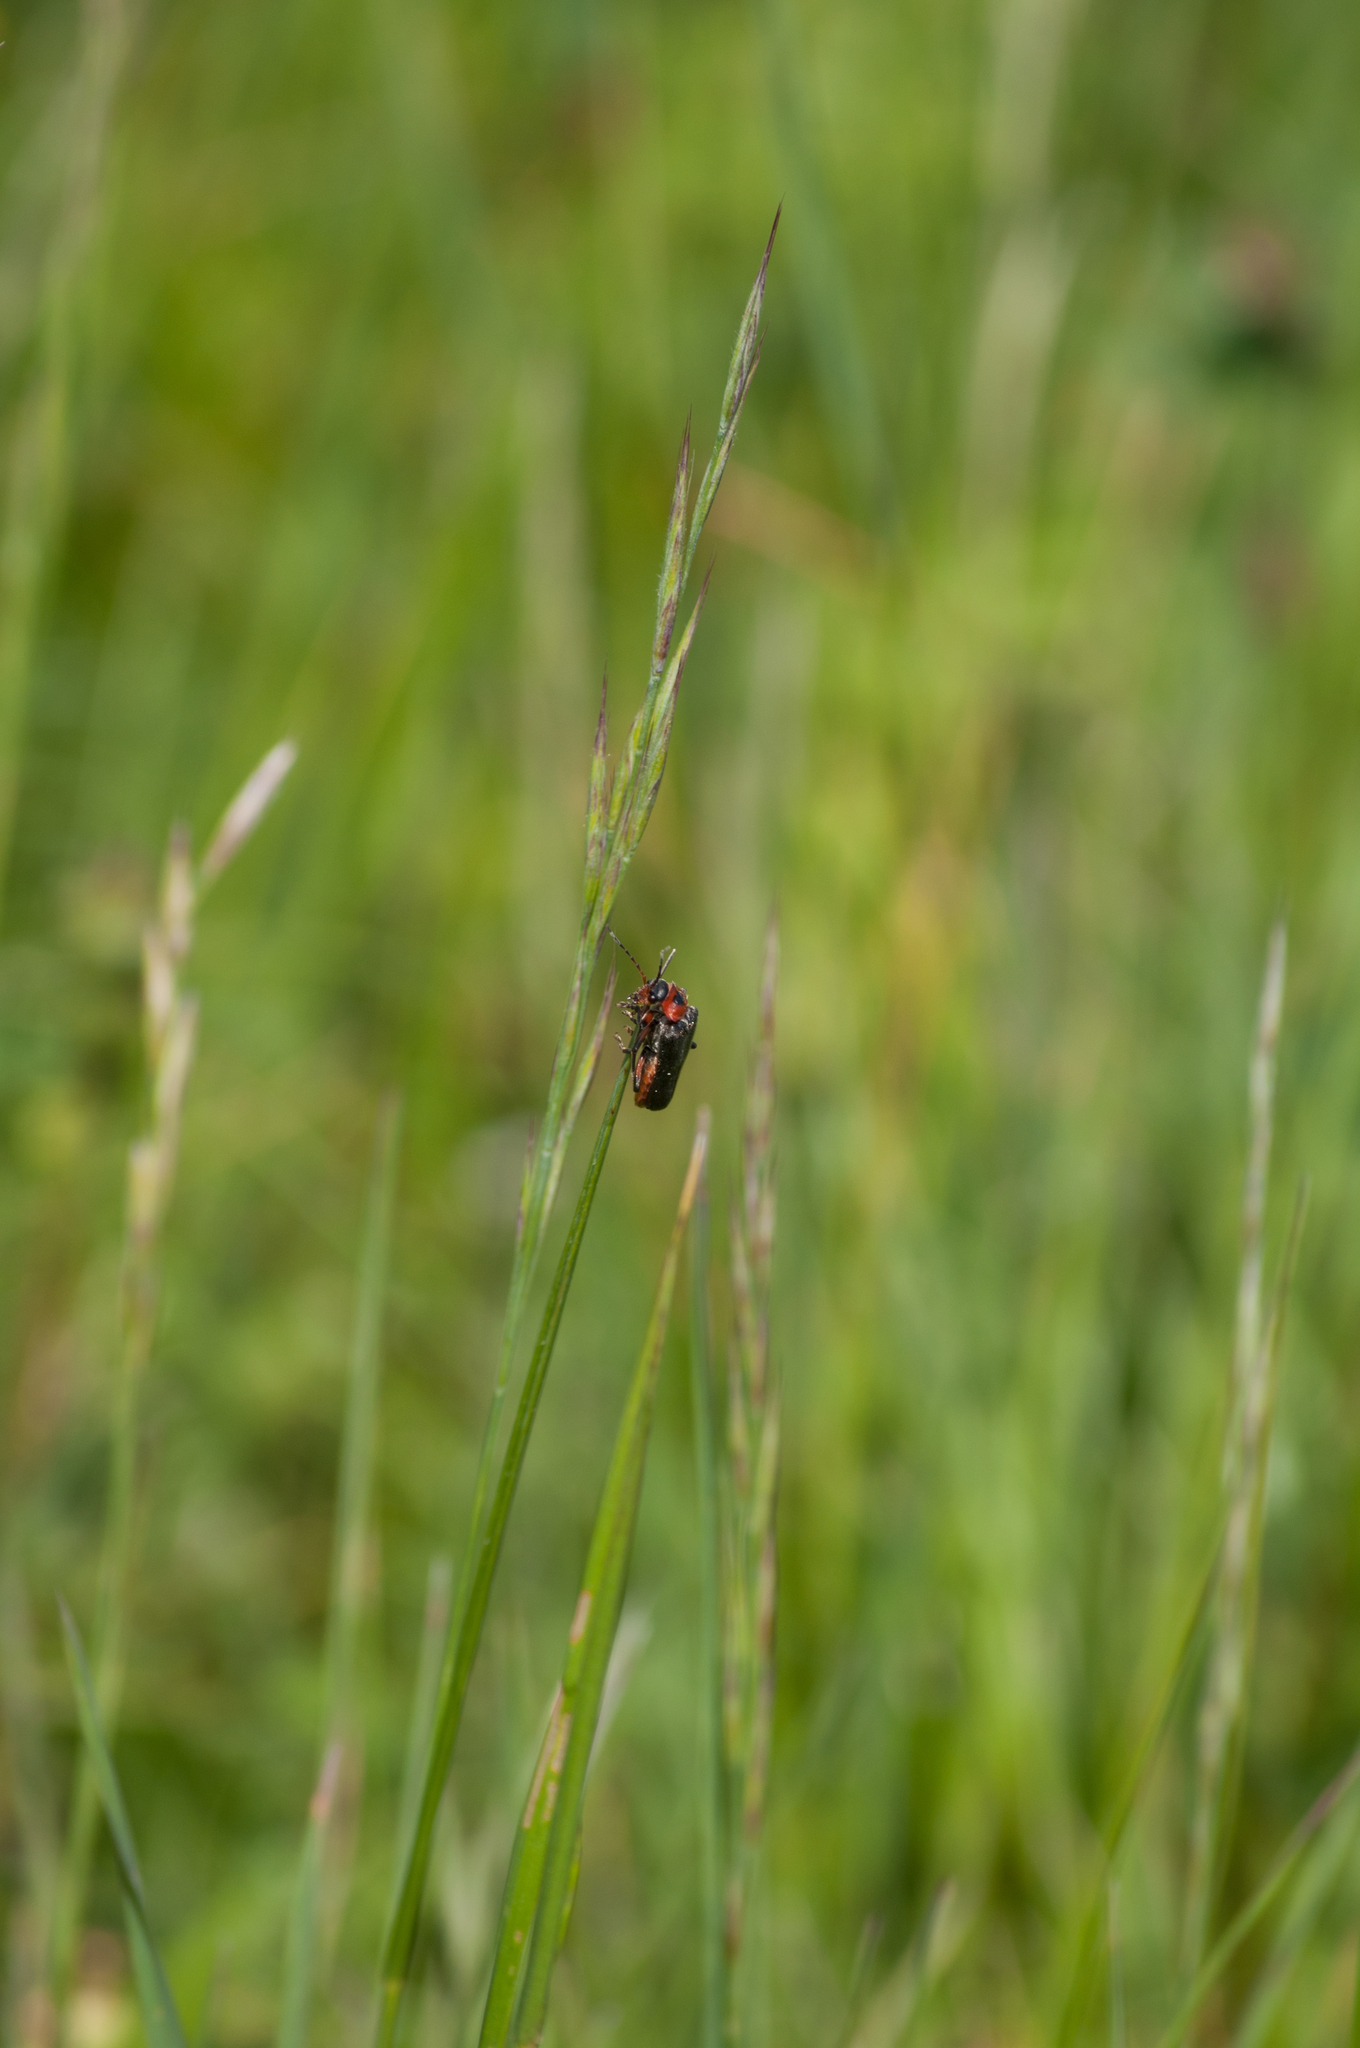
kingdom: Animalia
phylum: Arthropoda
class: Insecta
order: Coleoptera
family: Cantharidae
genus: Cantharis
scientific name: Cantharis rustica
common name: Soldier beetle
